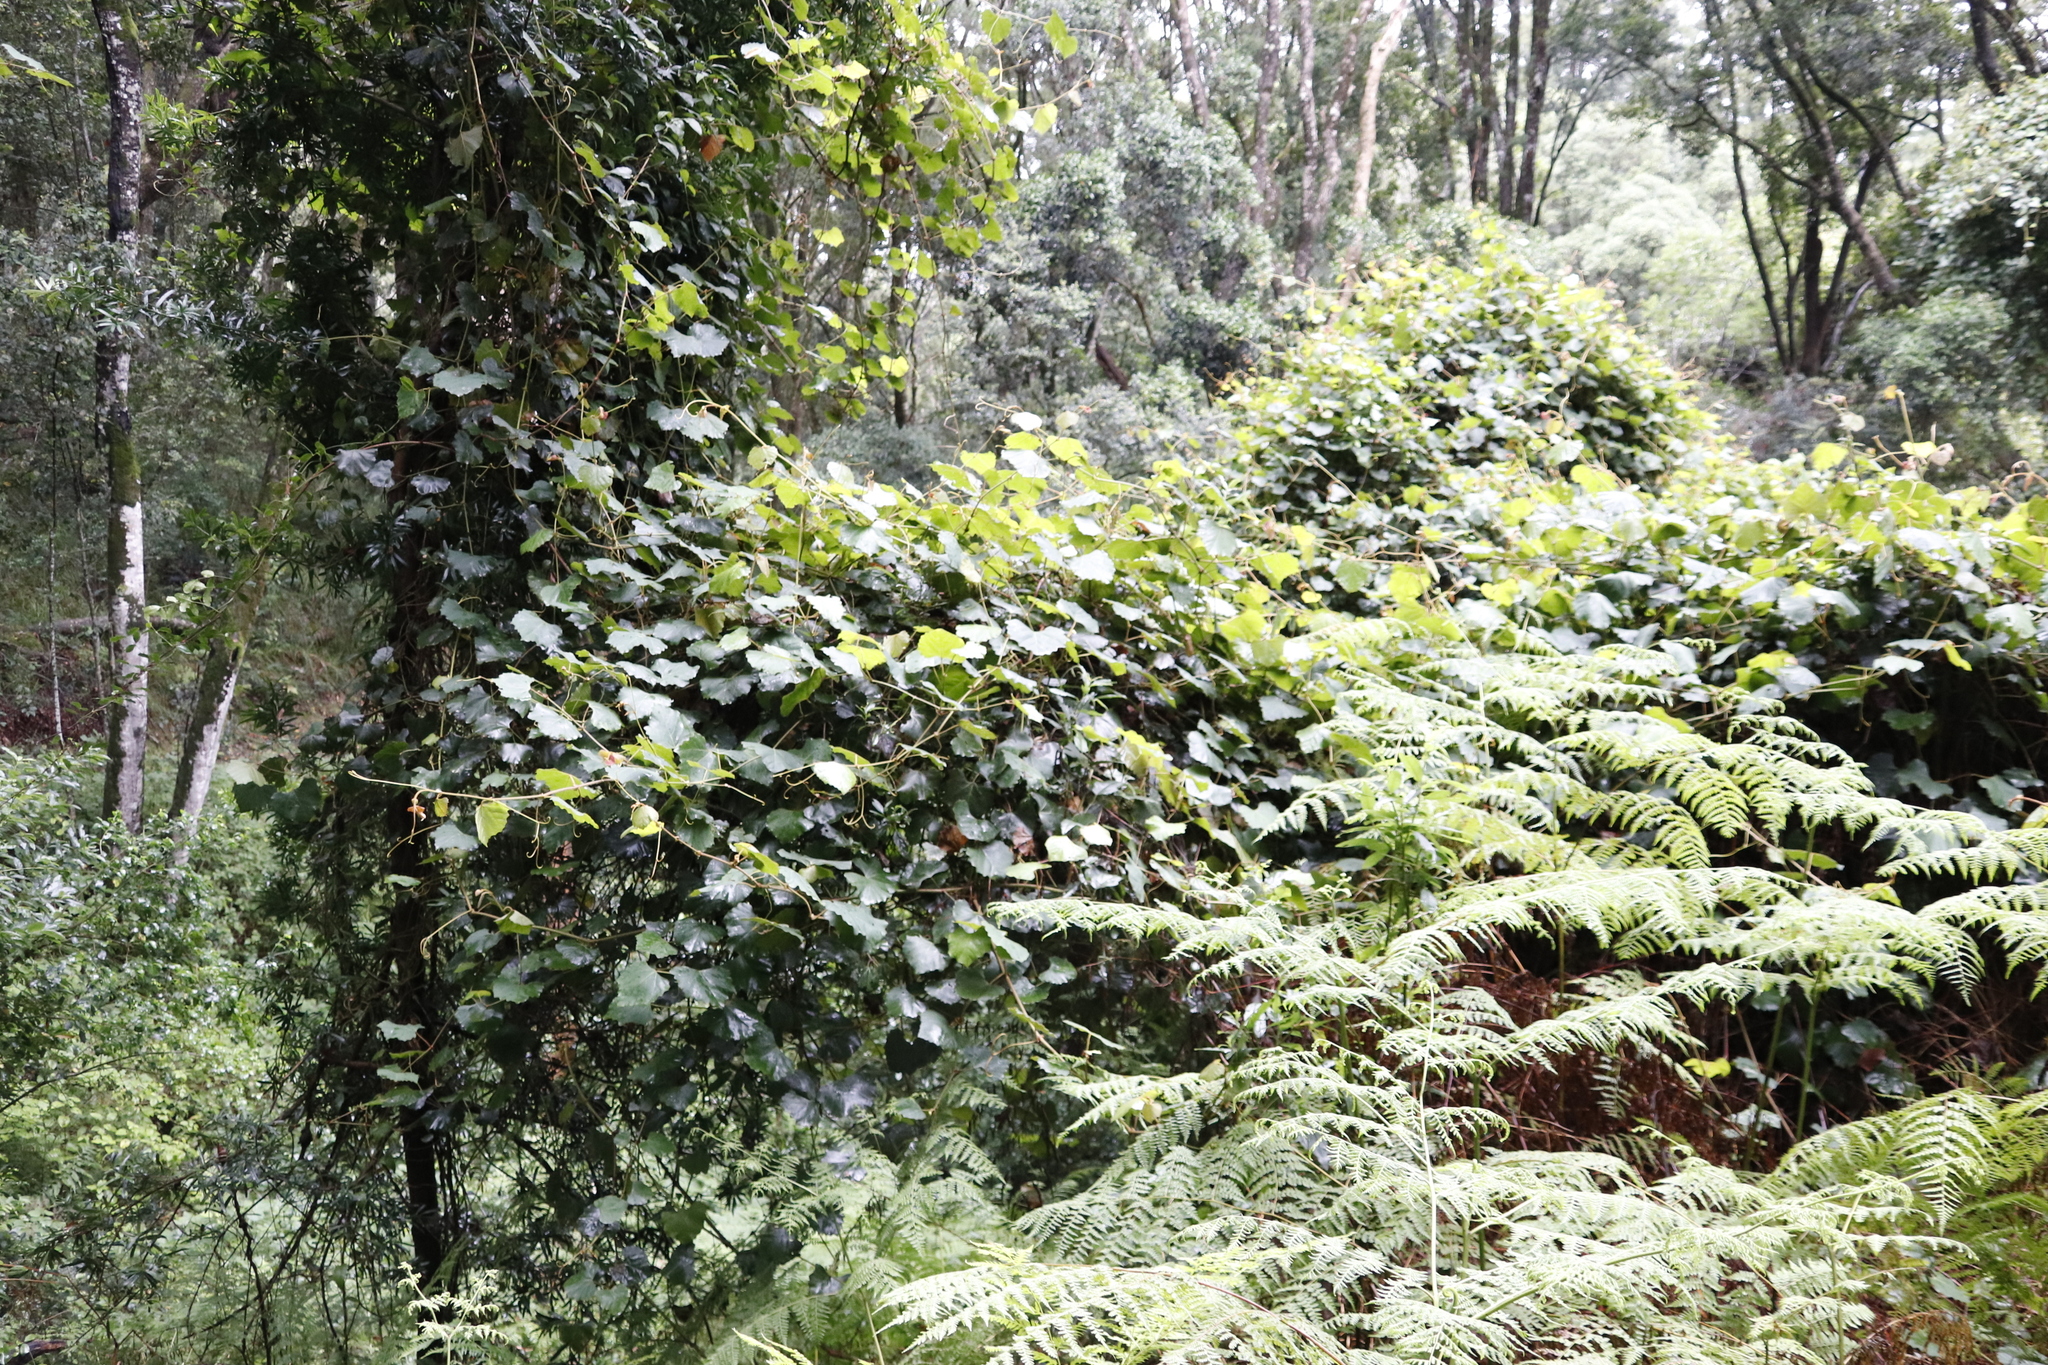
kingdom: Plantae
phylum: Tracheophyta
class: Magnoliopsida
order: Vitales
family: Vitaceae
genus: Rhoicissus
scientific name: Rhoicissus tomentosa
